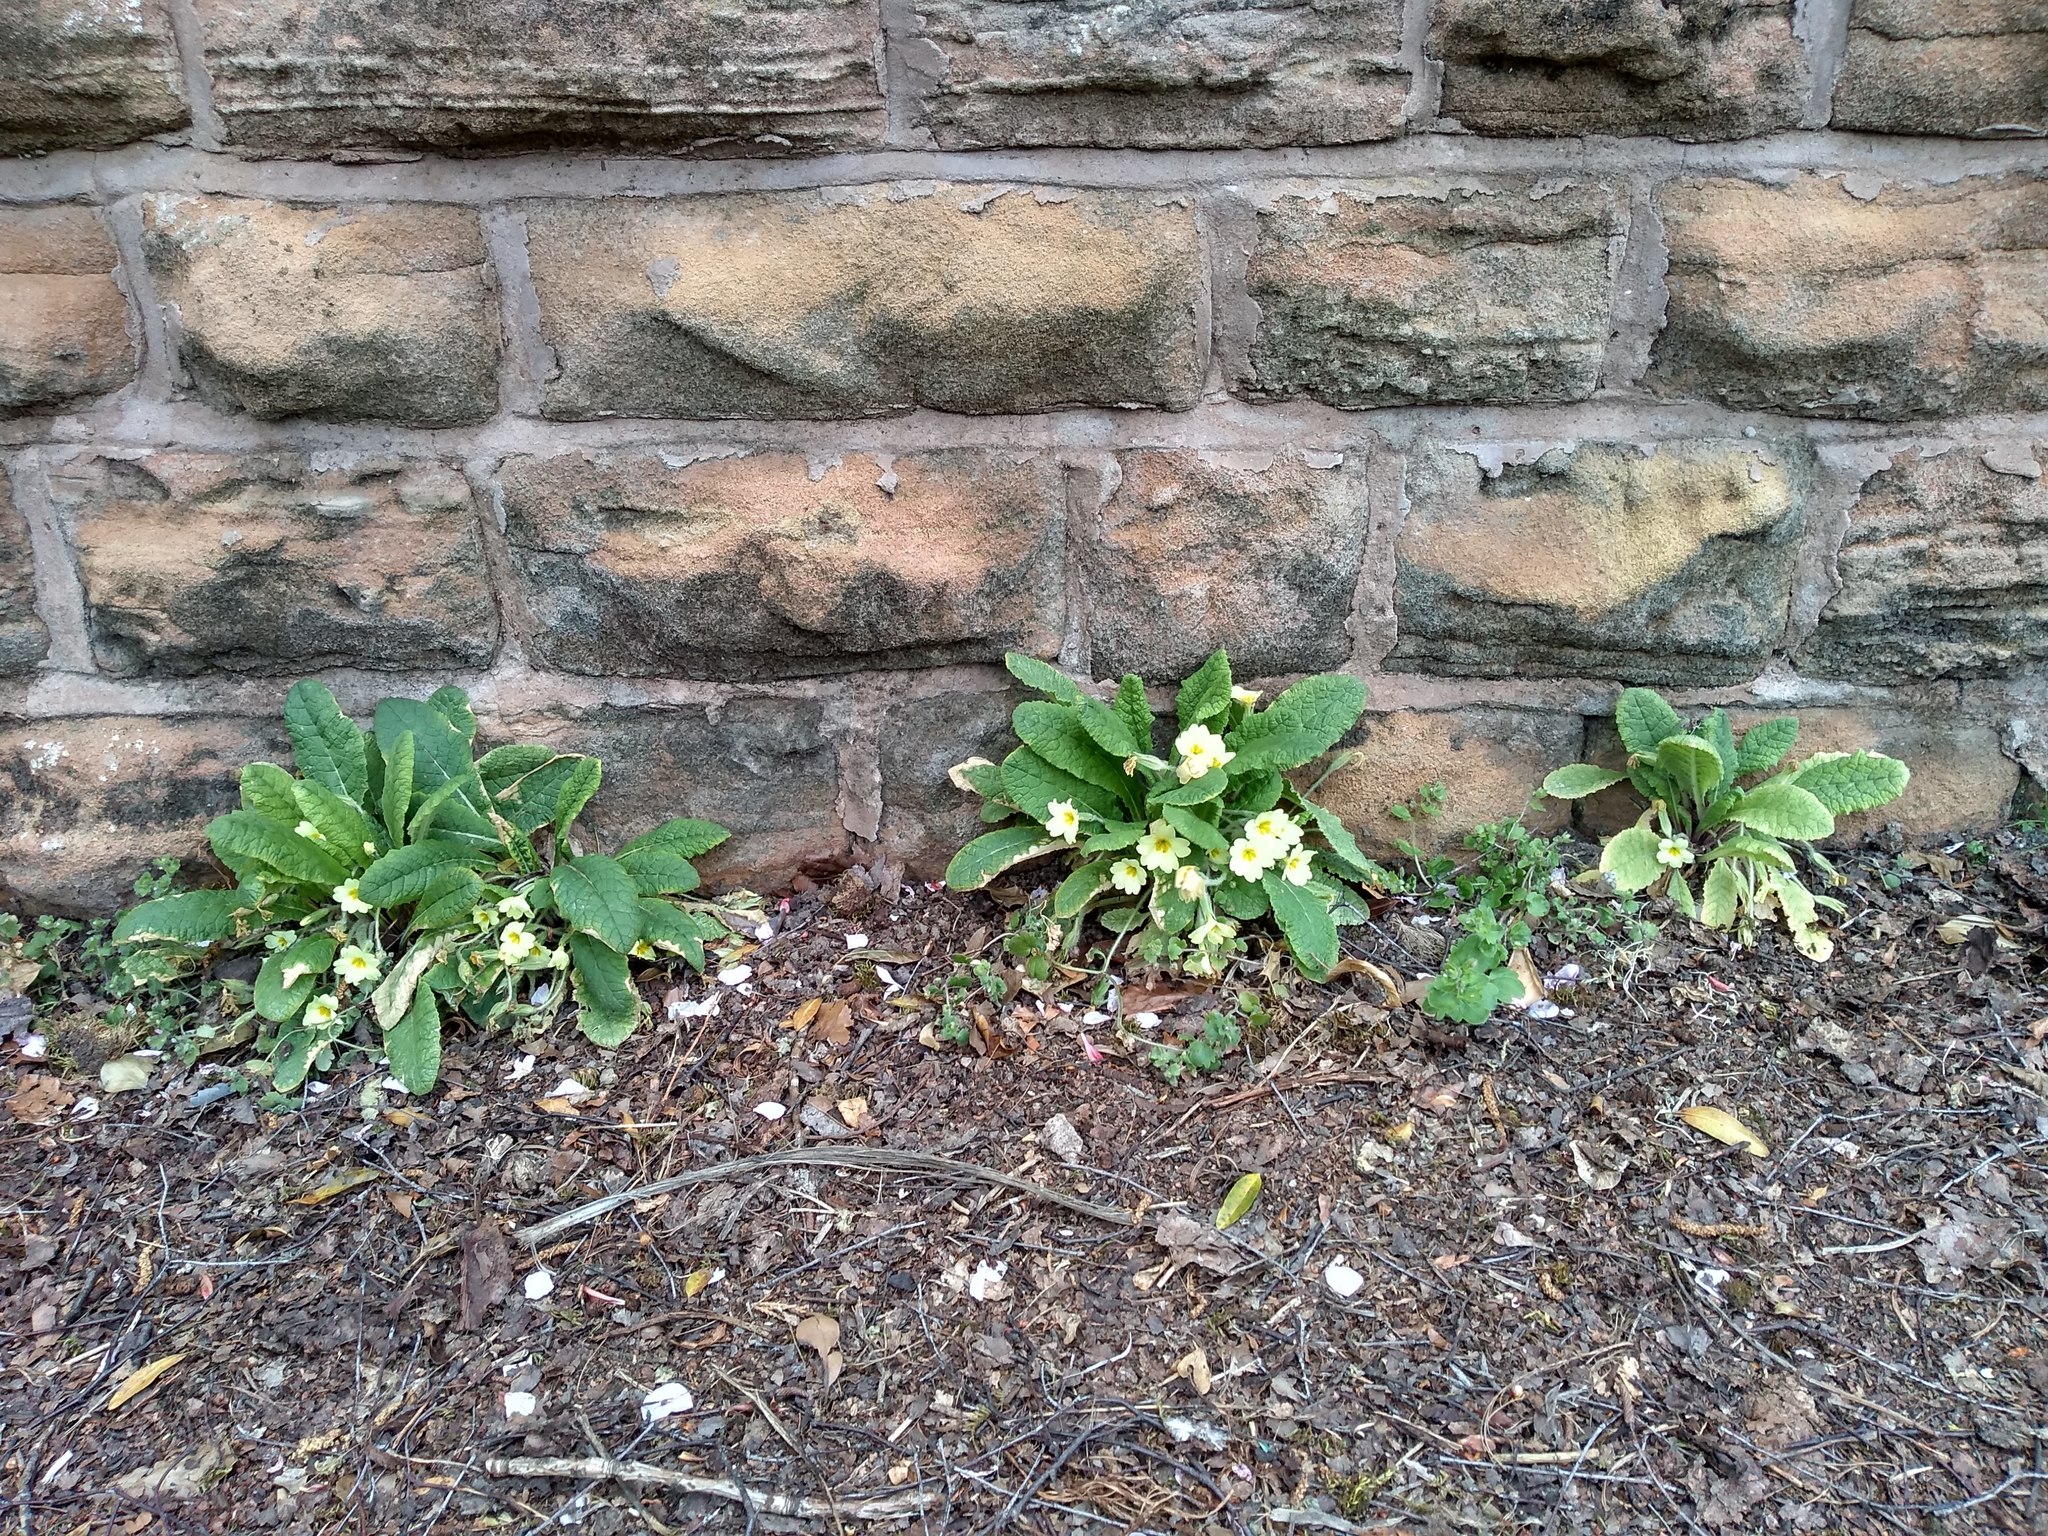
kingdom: Plantae
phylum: Tracheophyta
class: Magnoliopsida
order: Ericales
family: Primulaceae
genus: Primula
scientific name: Primula vulgaris
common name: Primrose
